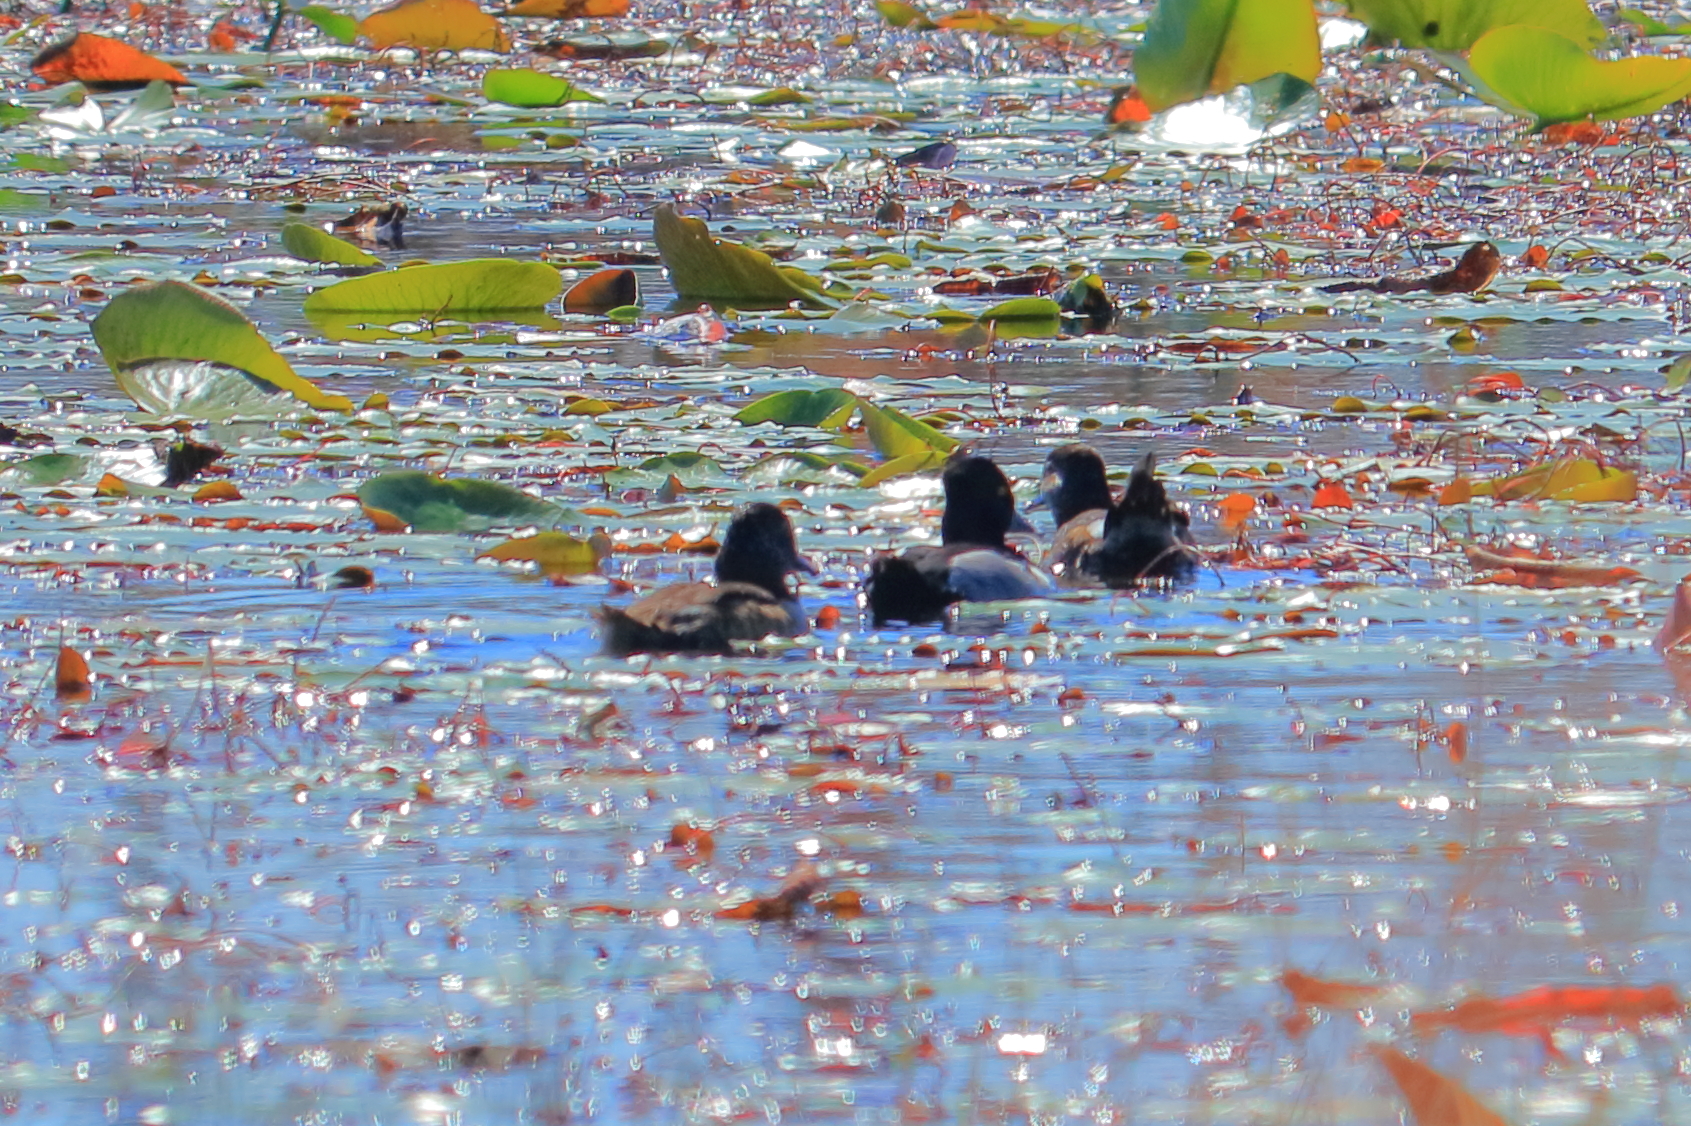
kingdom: Animalia
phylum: Chordata
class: Aves
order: Anseriformes
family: Anatidae
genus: Aythya
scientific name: Aythya collaris
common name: Ring-necked duck
